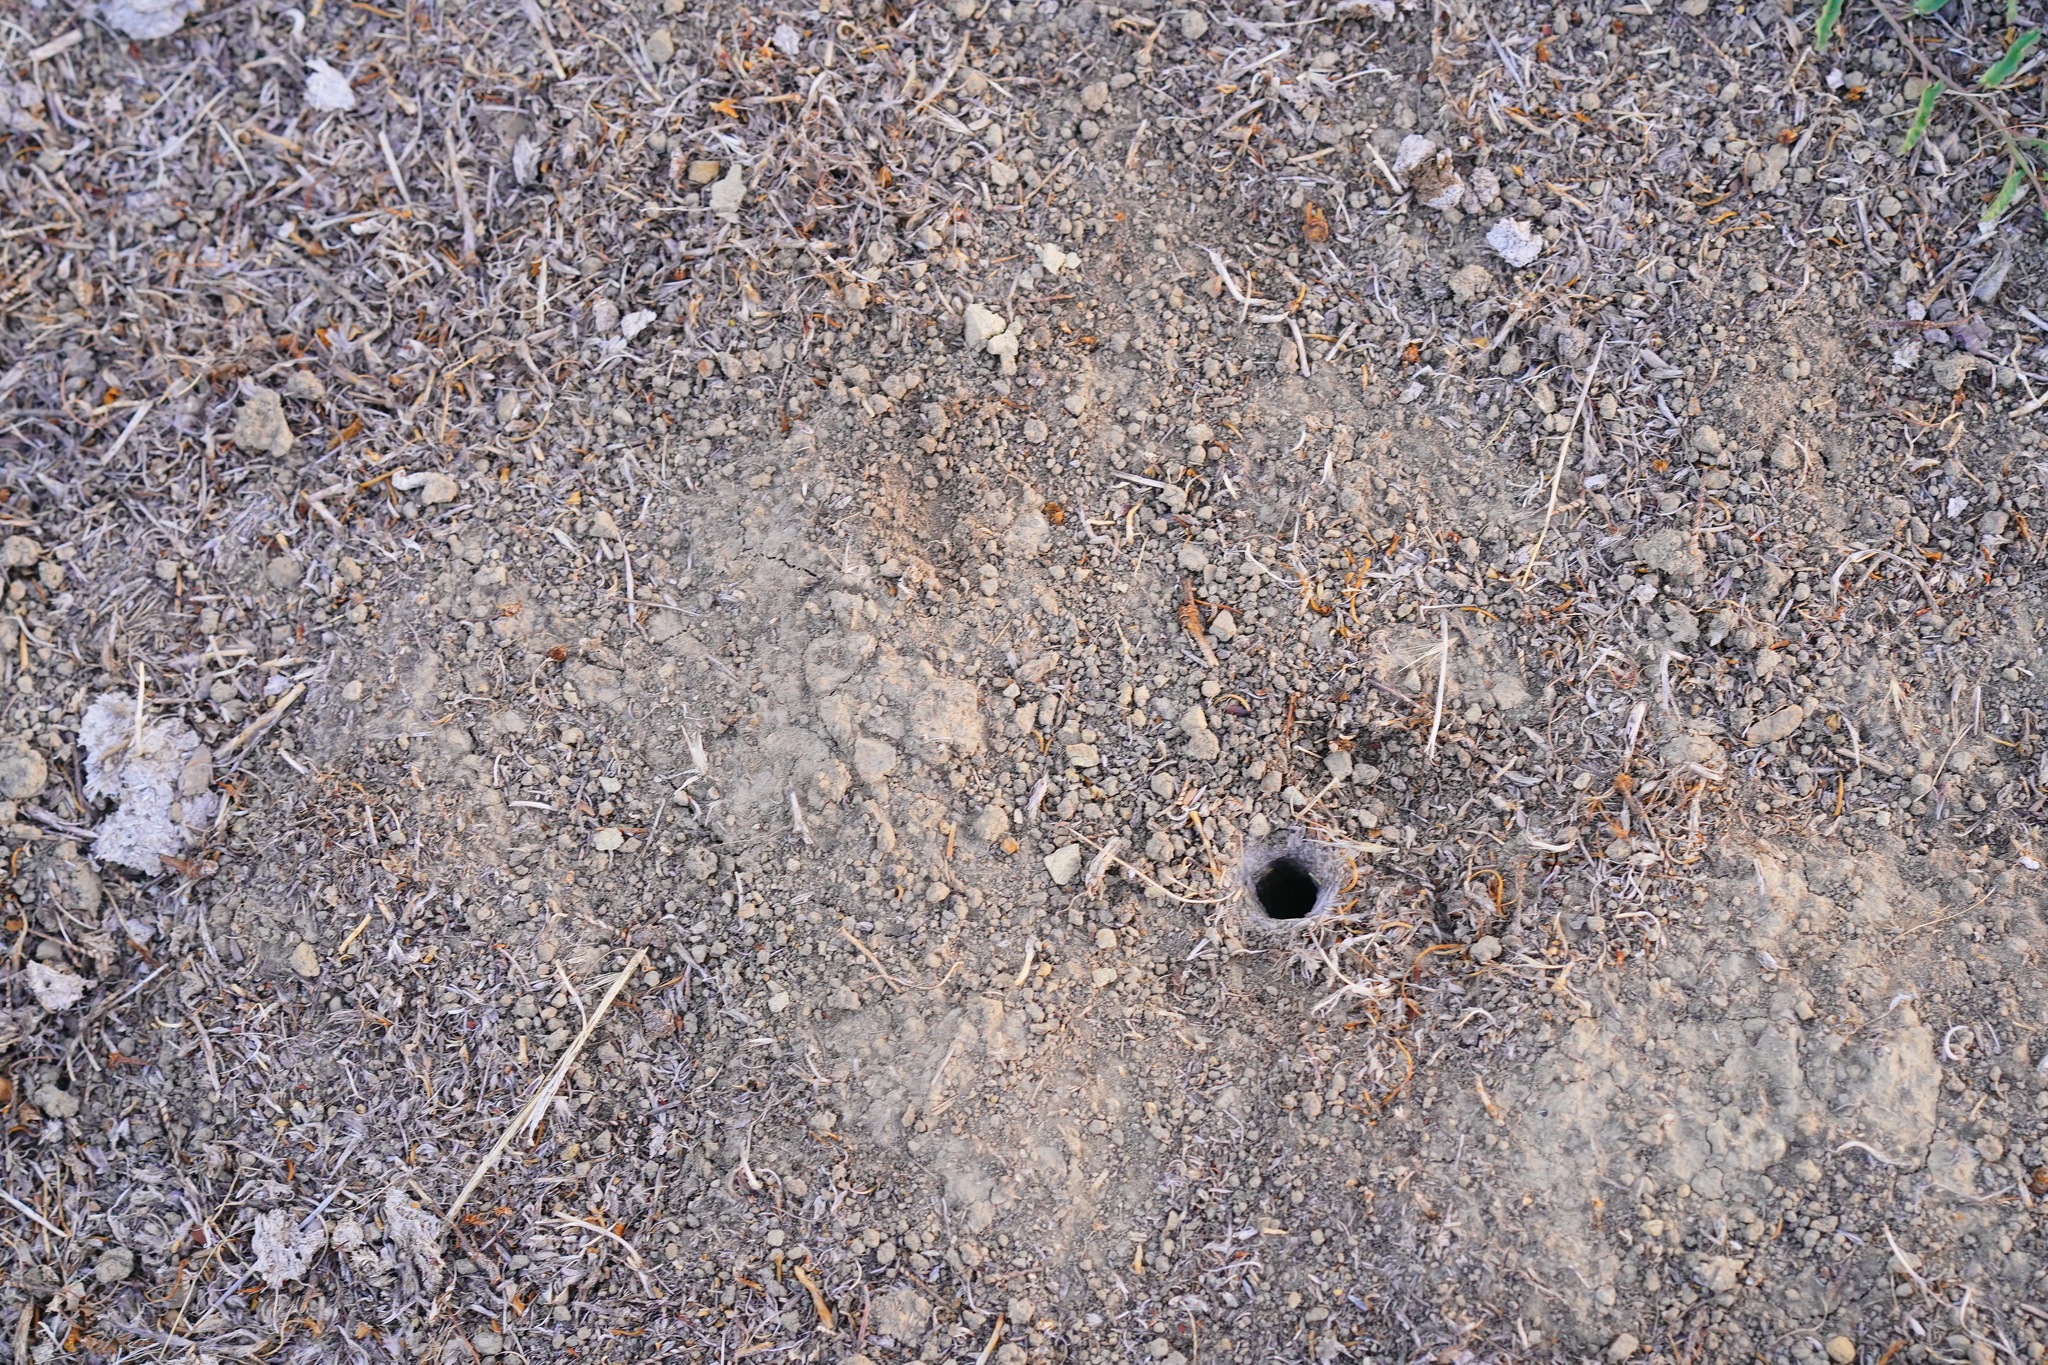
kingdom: Animalia
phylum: Arthropoda
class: Arachnida
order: Araneae
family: Nemesiidae
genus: Calisoga
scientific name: Calisoga longitarsis
